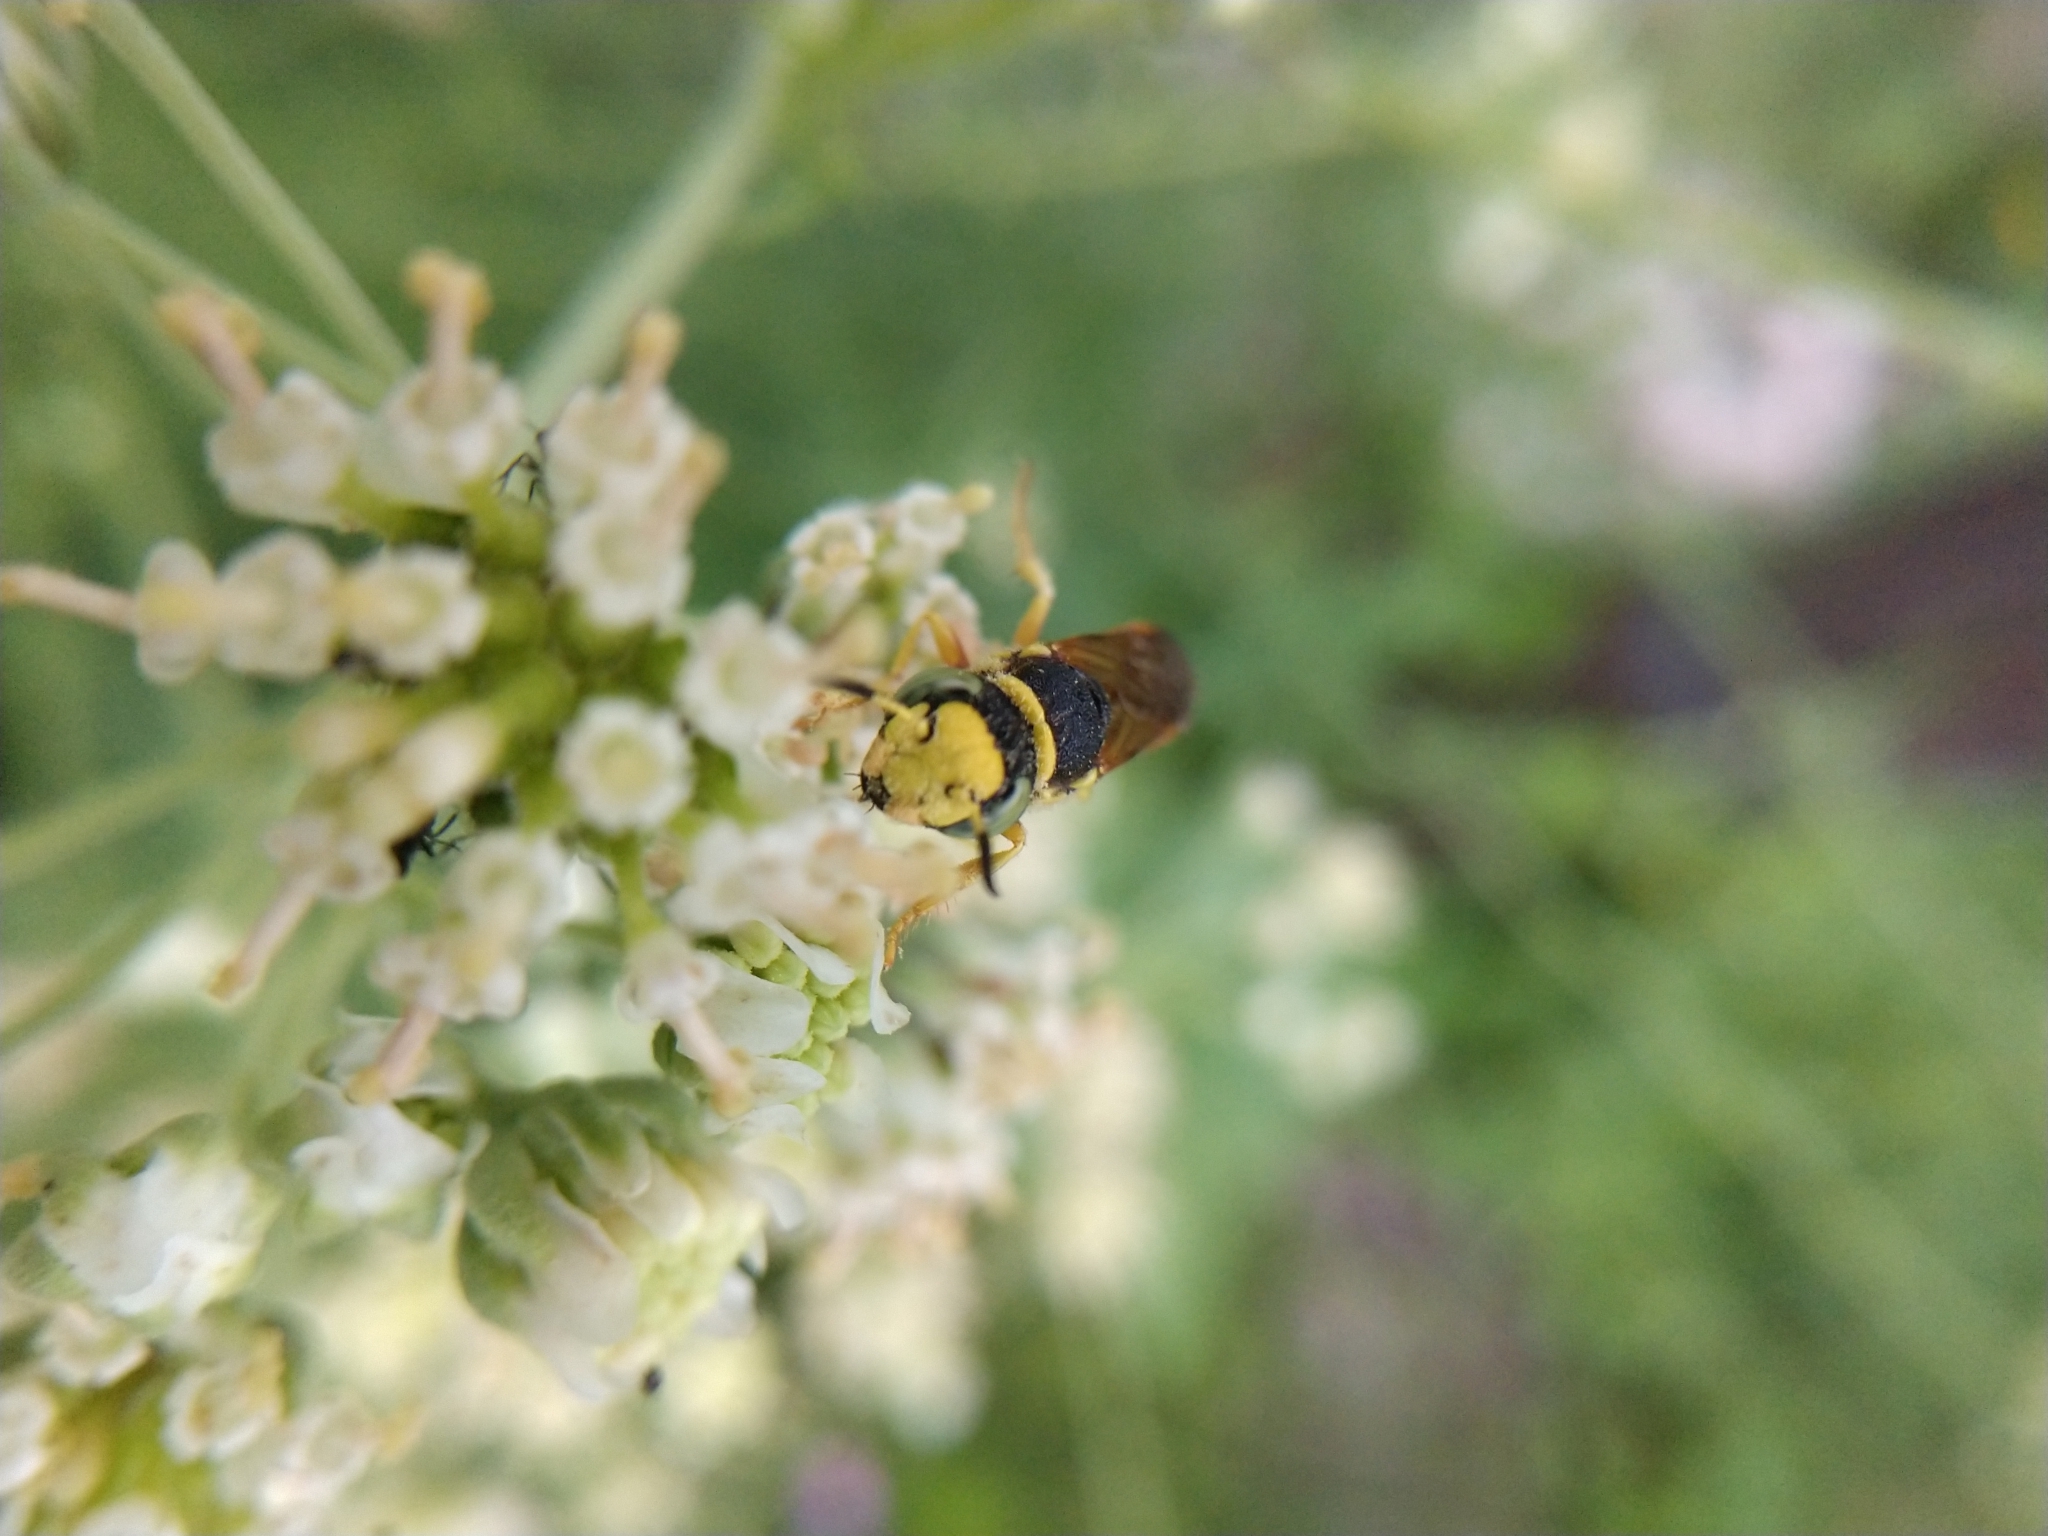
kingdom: Animalia
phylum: Arthropoda
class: Insecta
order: Hymenoptera
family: Crabronidae
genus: Philanthus
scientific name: Philanthus ventilabris
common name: Bee-killer wasp
